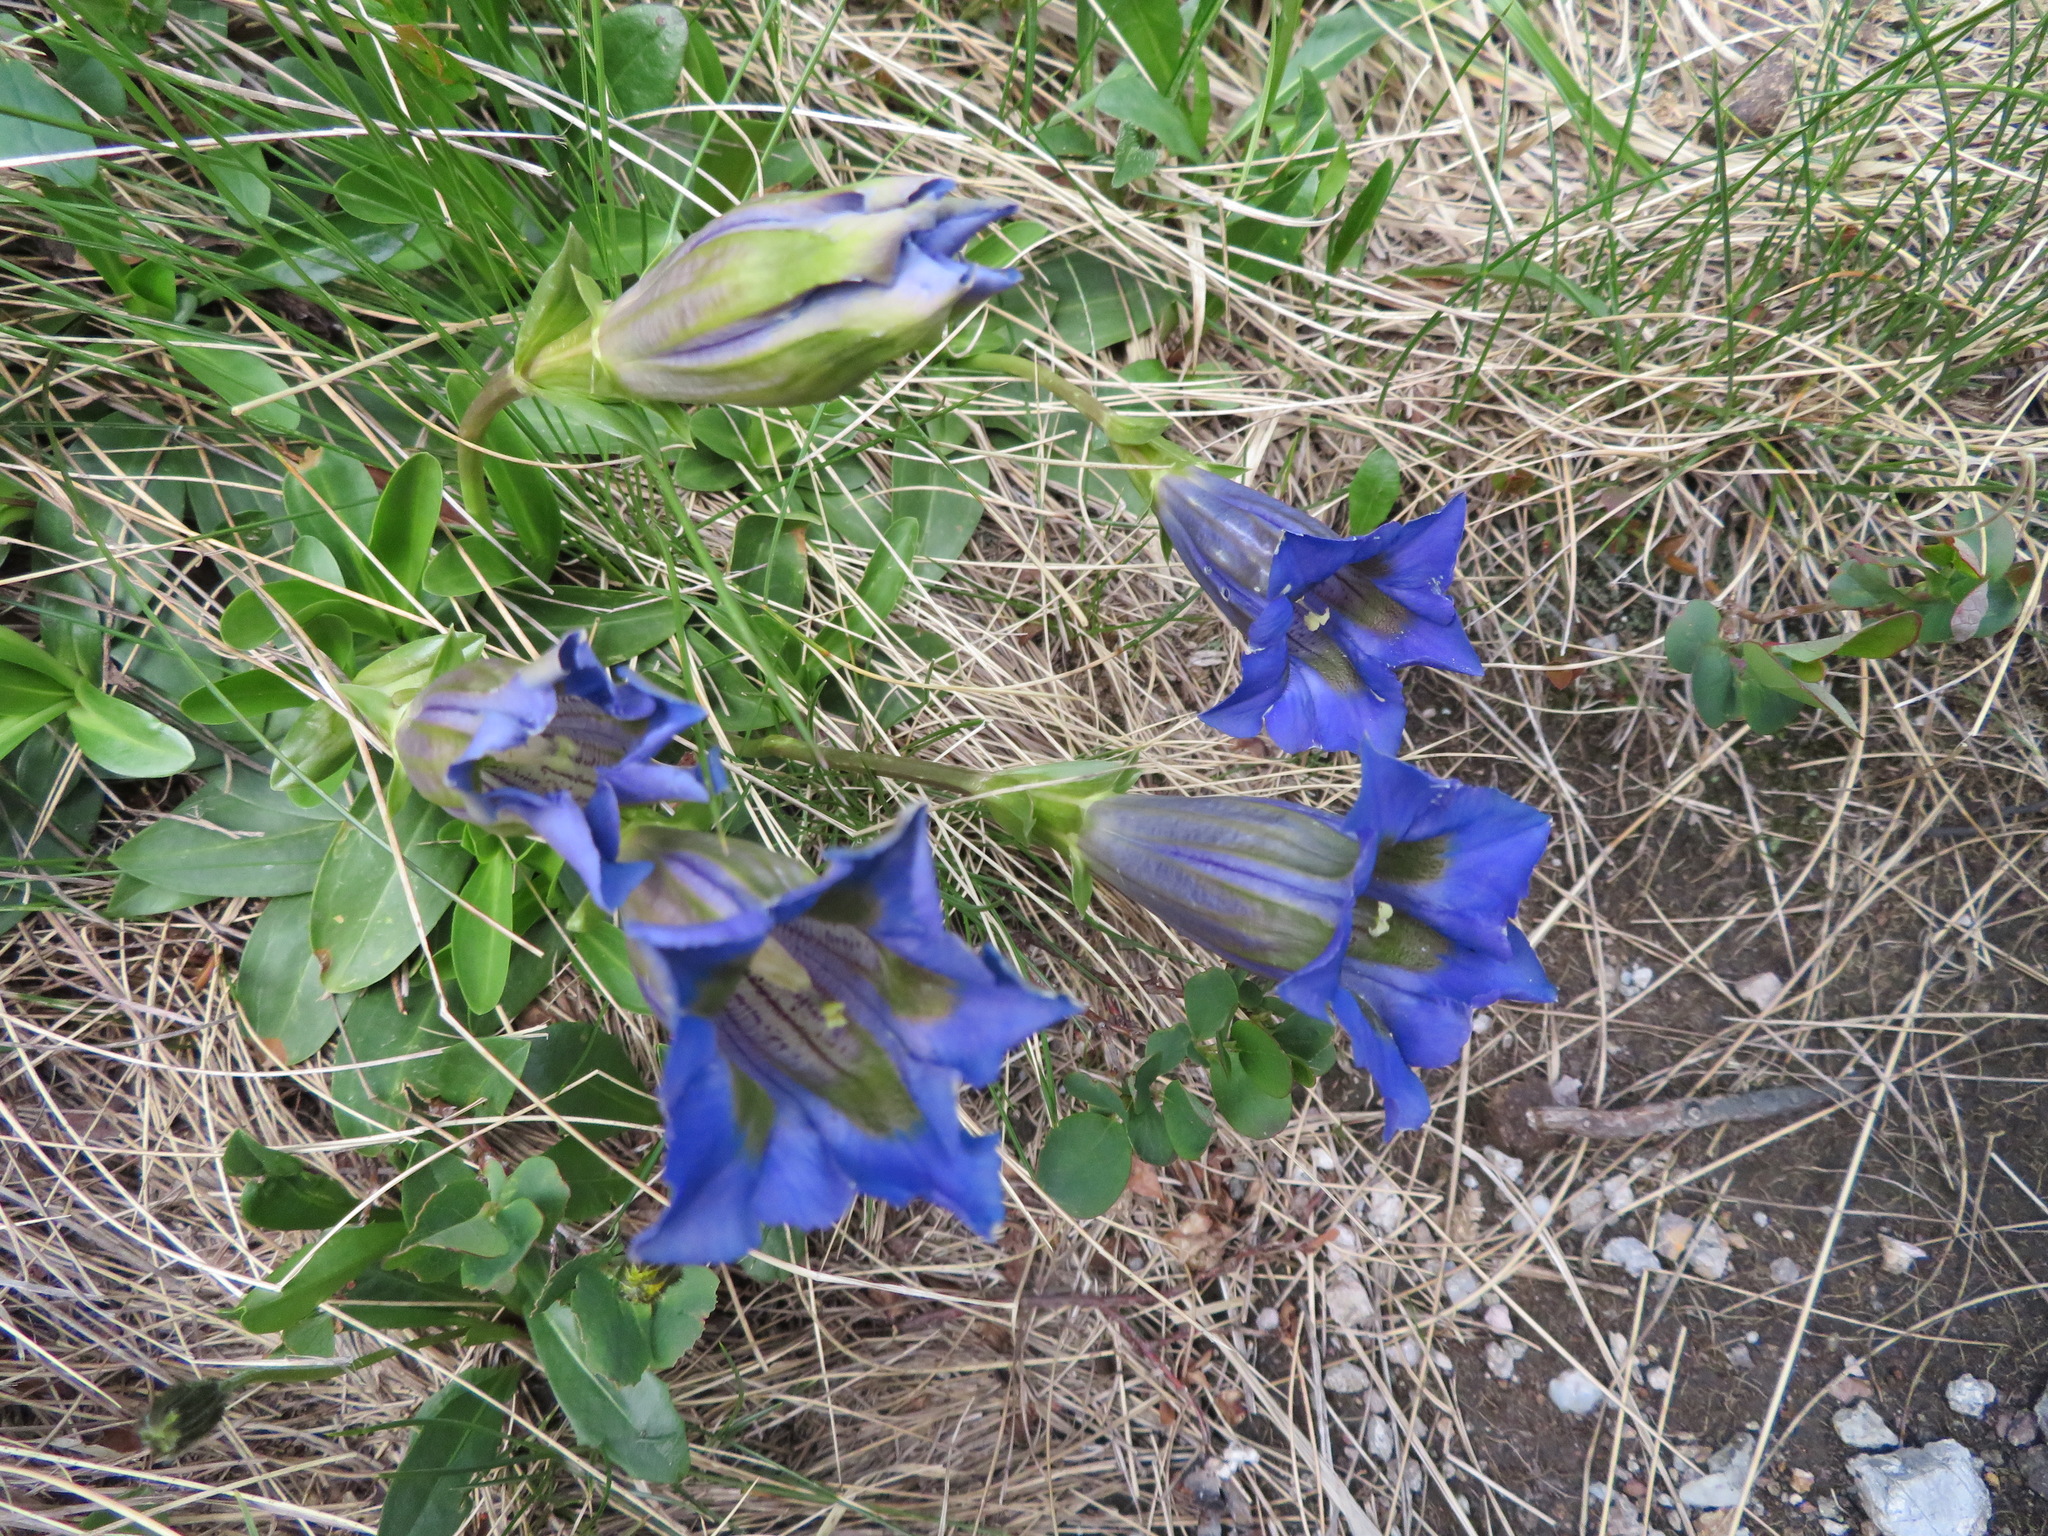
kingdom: Plantae
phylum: Tracheophyta
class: Magnoliopsida
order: Gentianales
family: Gentianaceae
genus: Gentiana
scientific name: Gentiana acaulis
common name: Trumpet gentian
